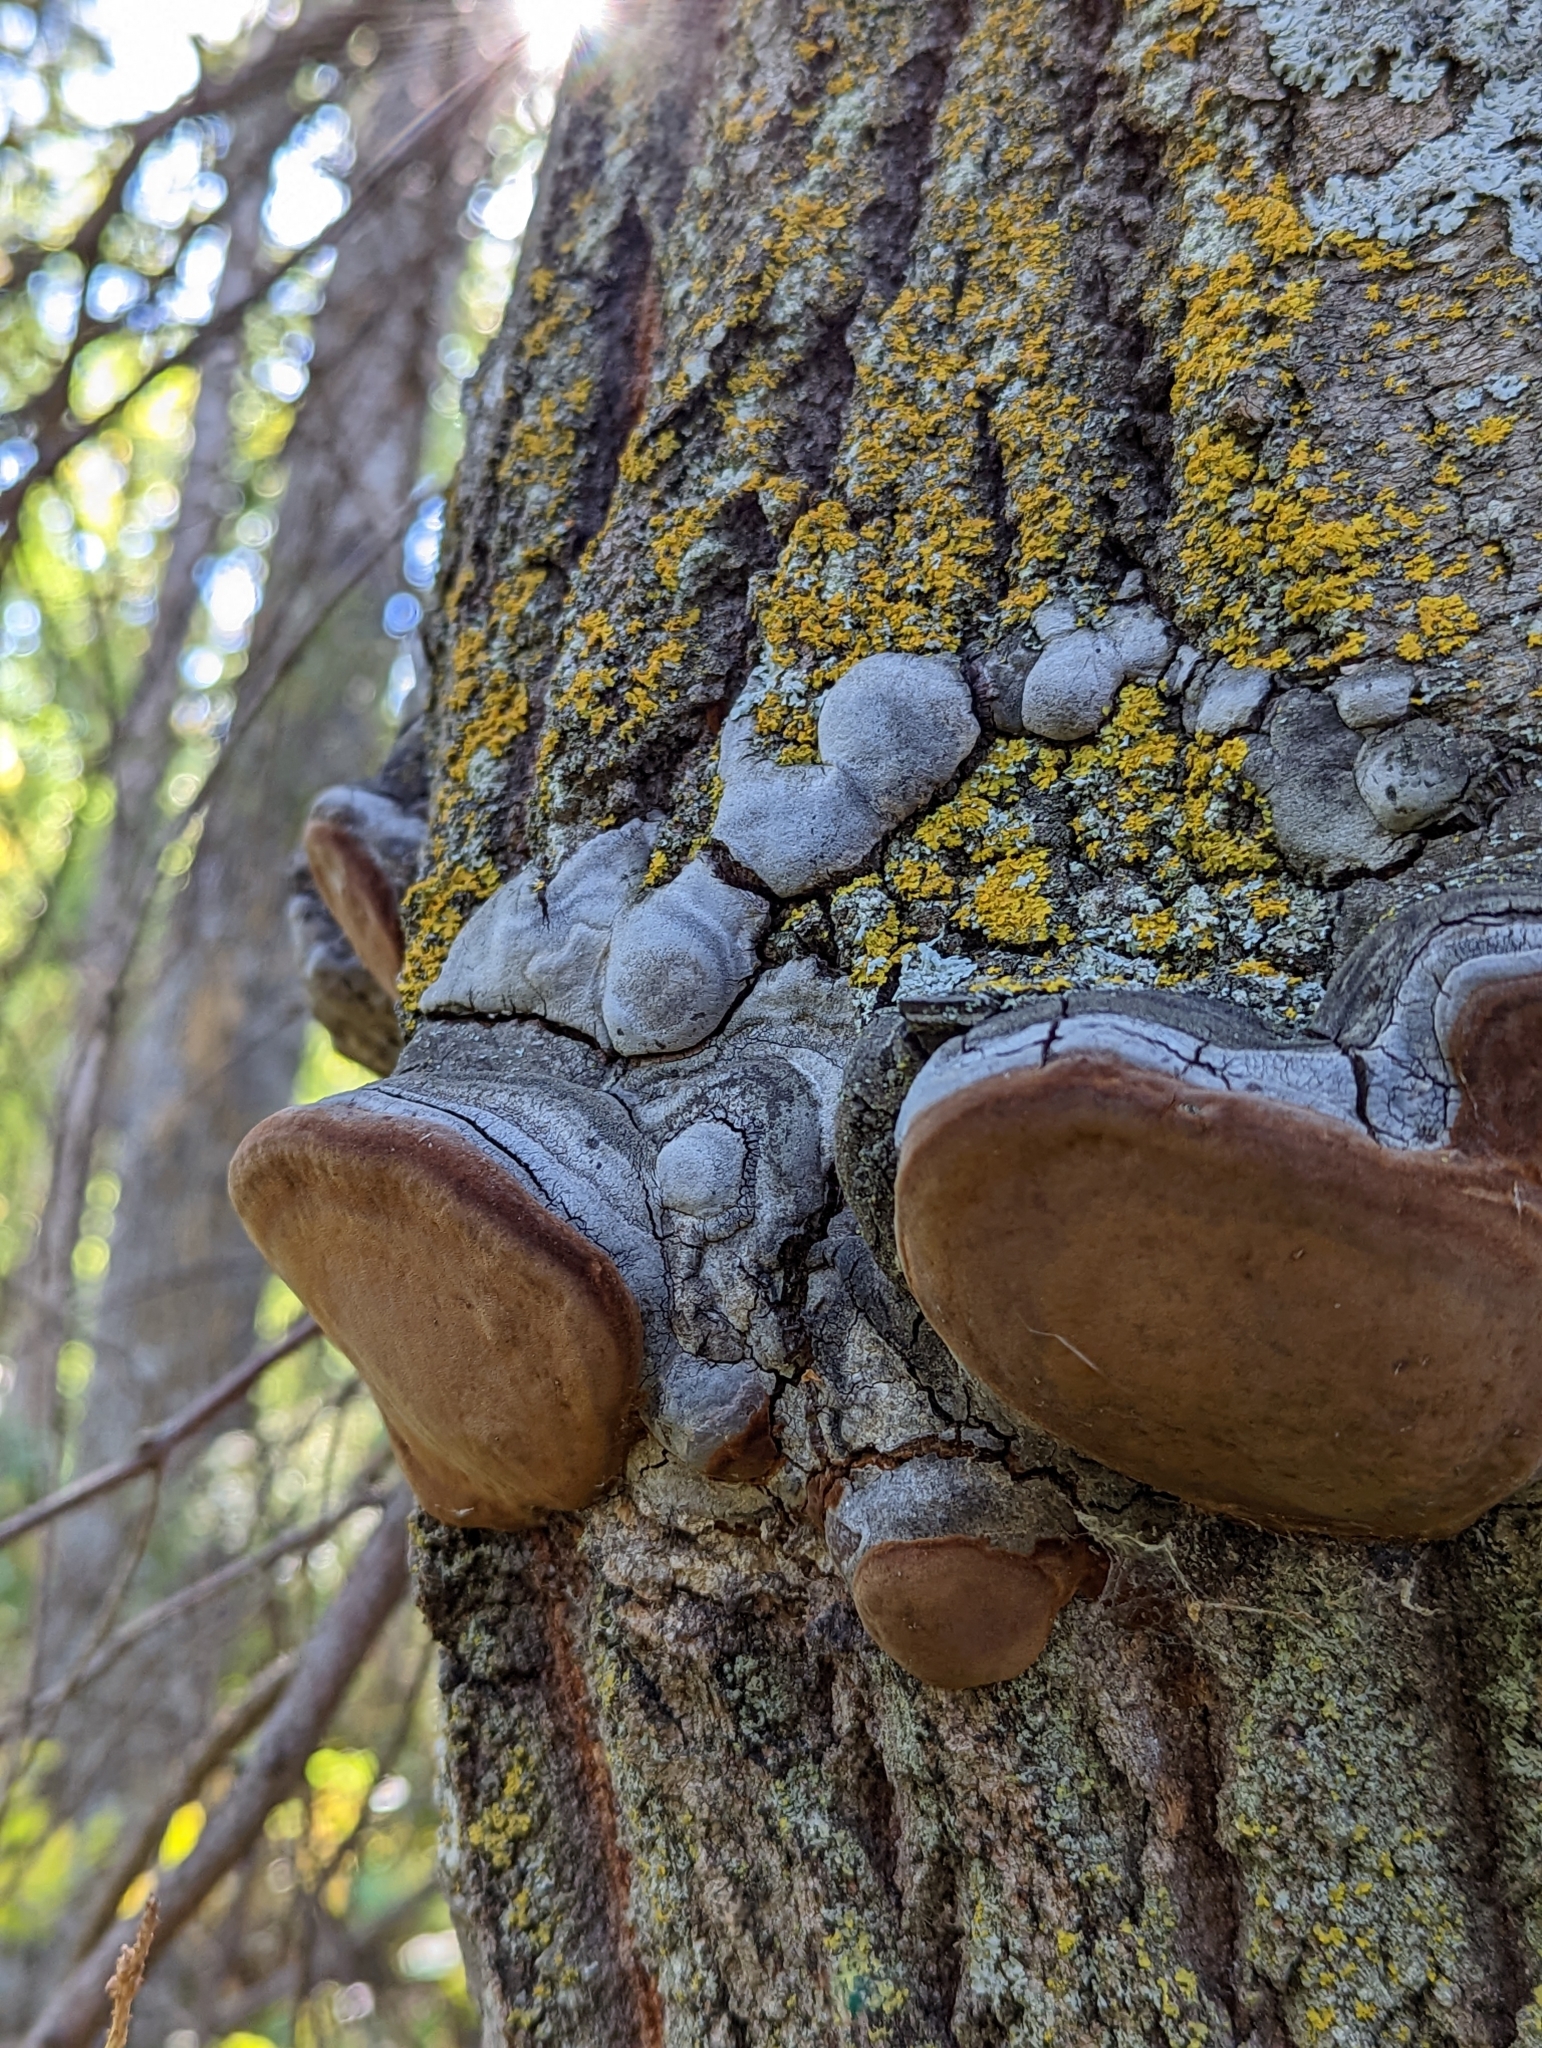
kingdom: Fungi
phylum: Basidiomycota
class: Agaricomycetes
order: Hymenochaetales
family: Hymenochaetaceae
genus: Phellinus
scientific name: Phellinus tremulae
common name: Aspen bracket
